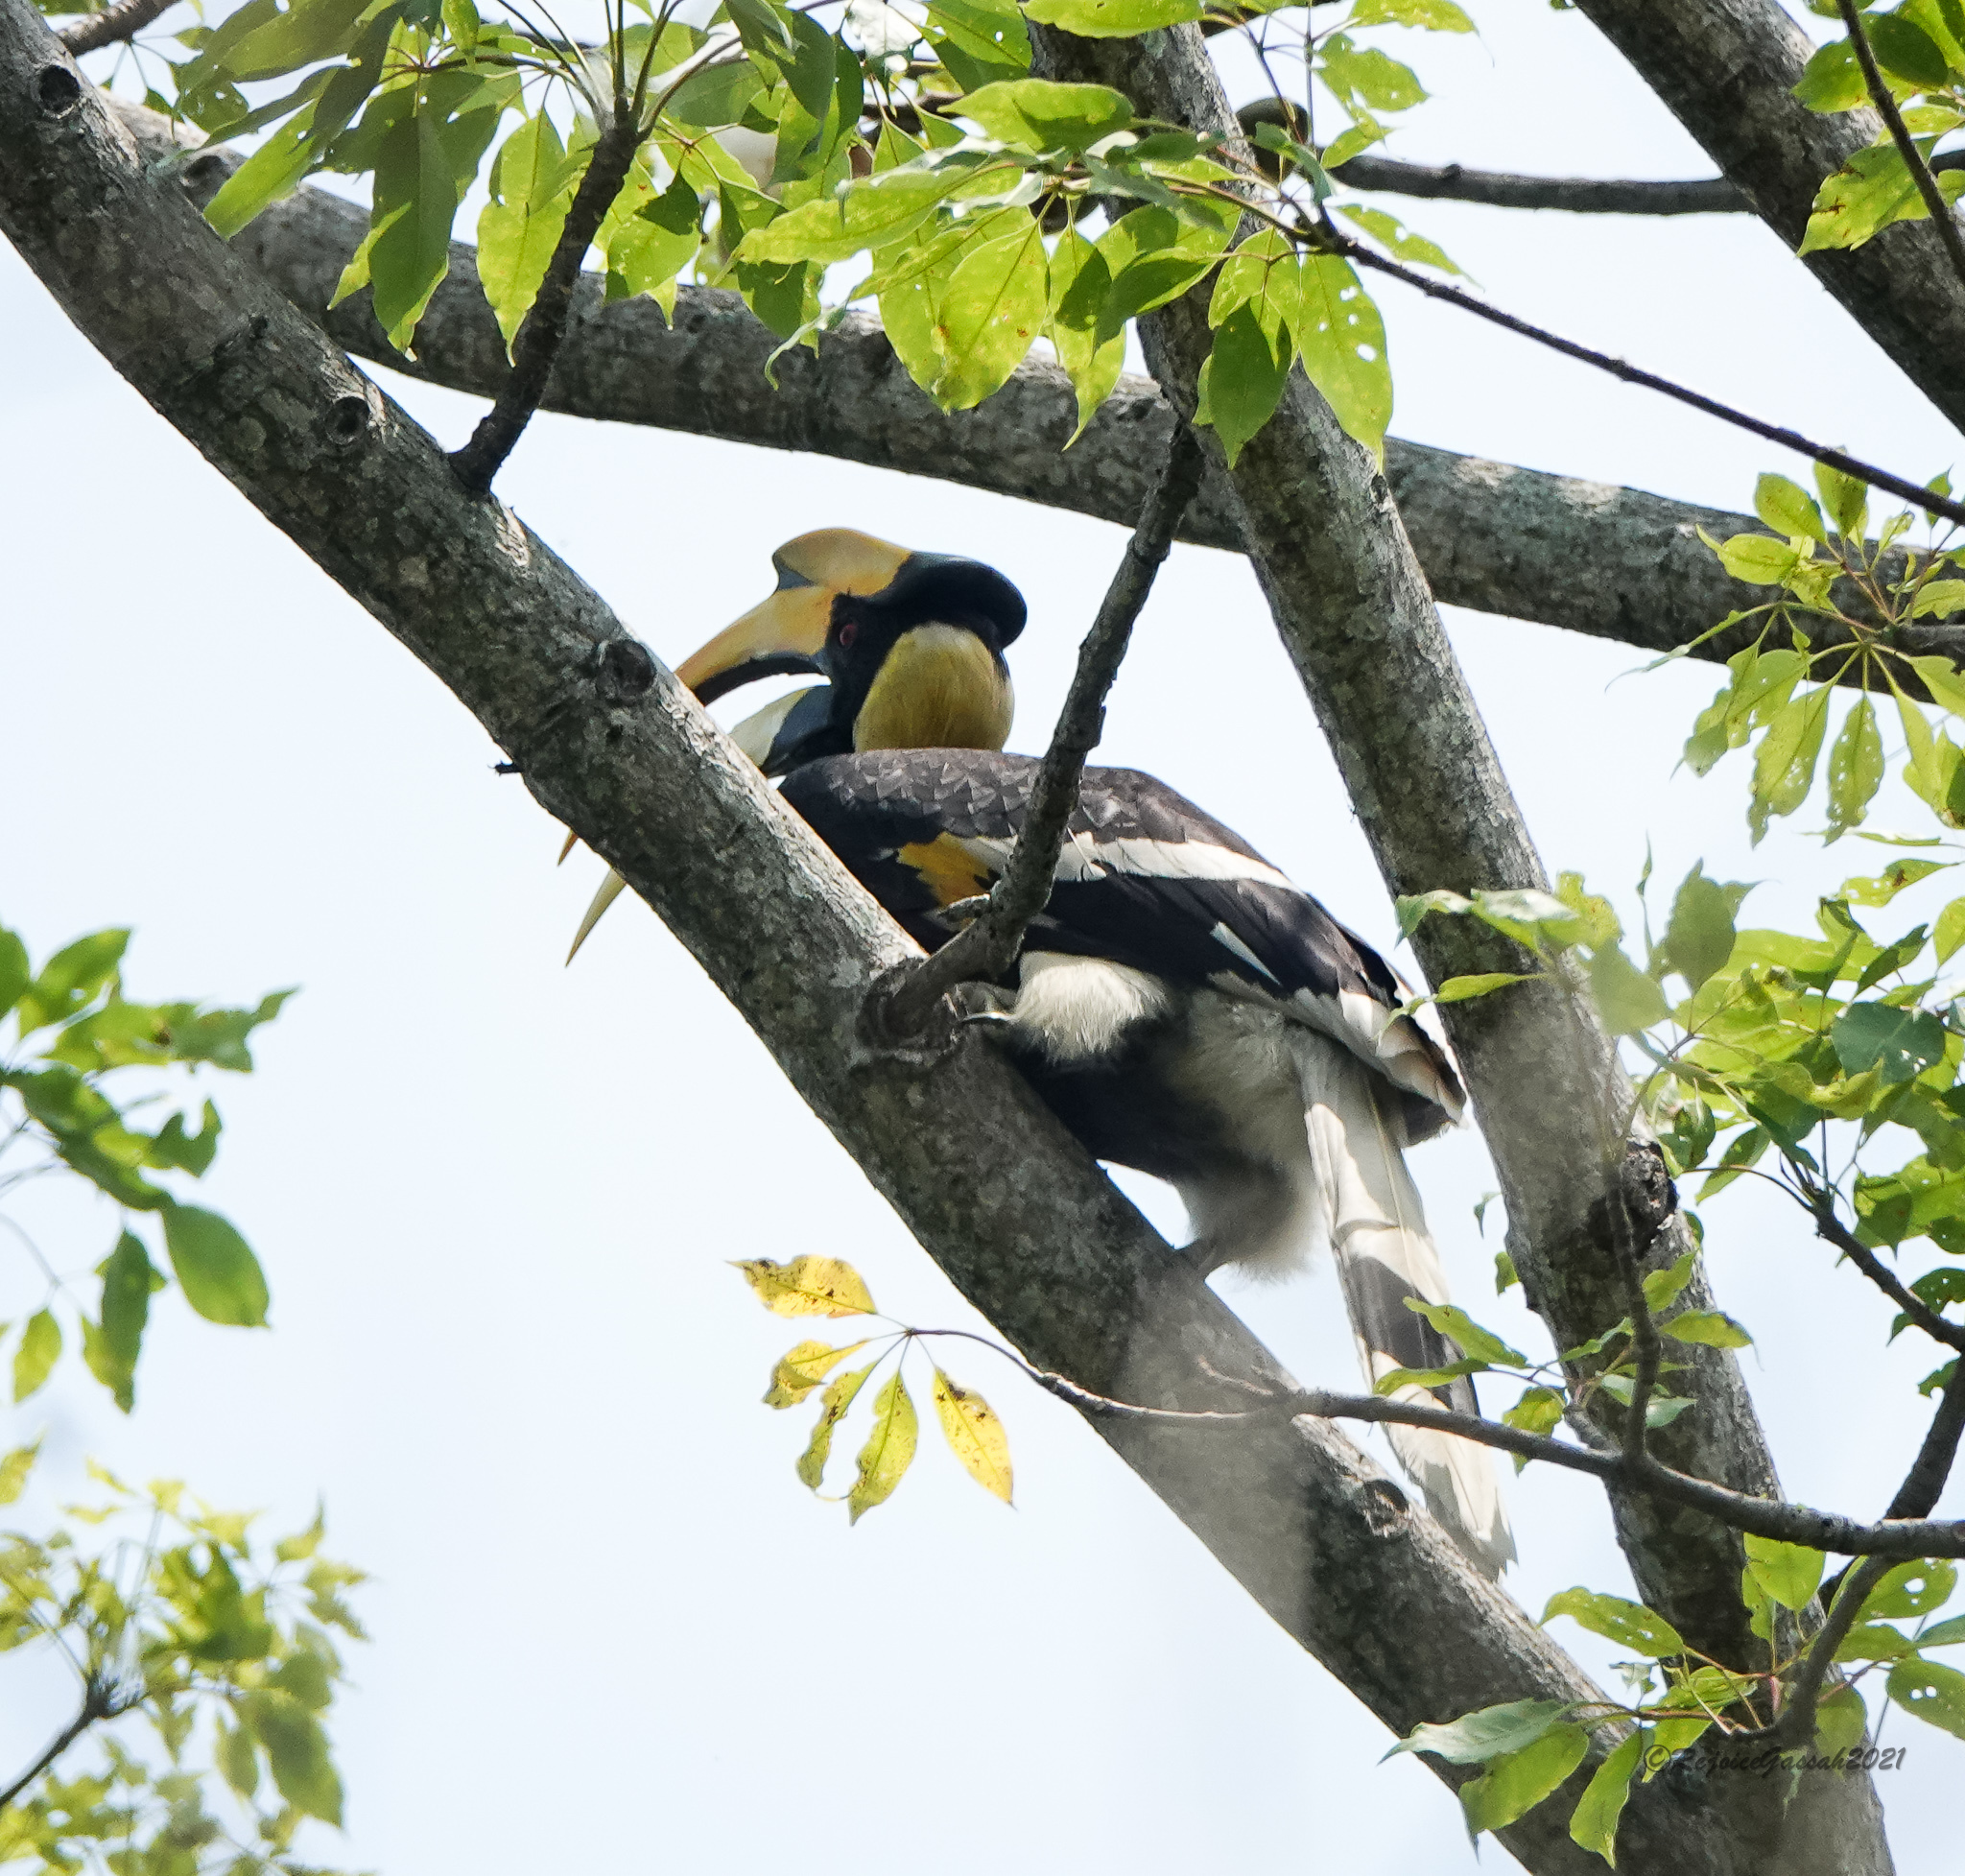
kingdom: Animalia
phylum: Chordata
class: Aves
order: Bucerotiformes
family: Bucerotidae
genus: Buceros
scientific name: Buceros bicornis
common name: Great hornbill
